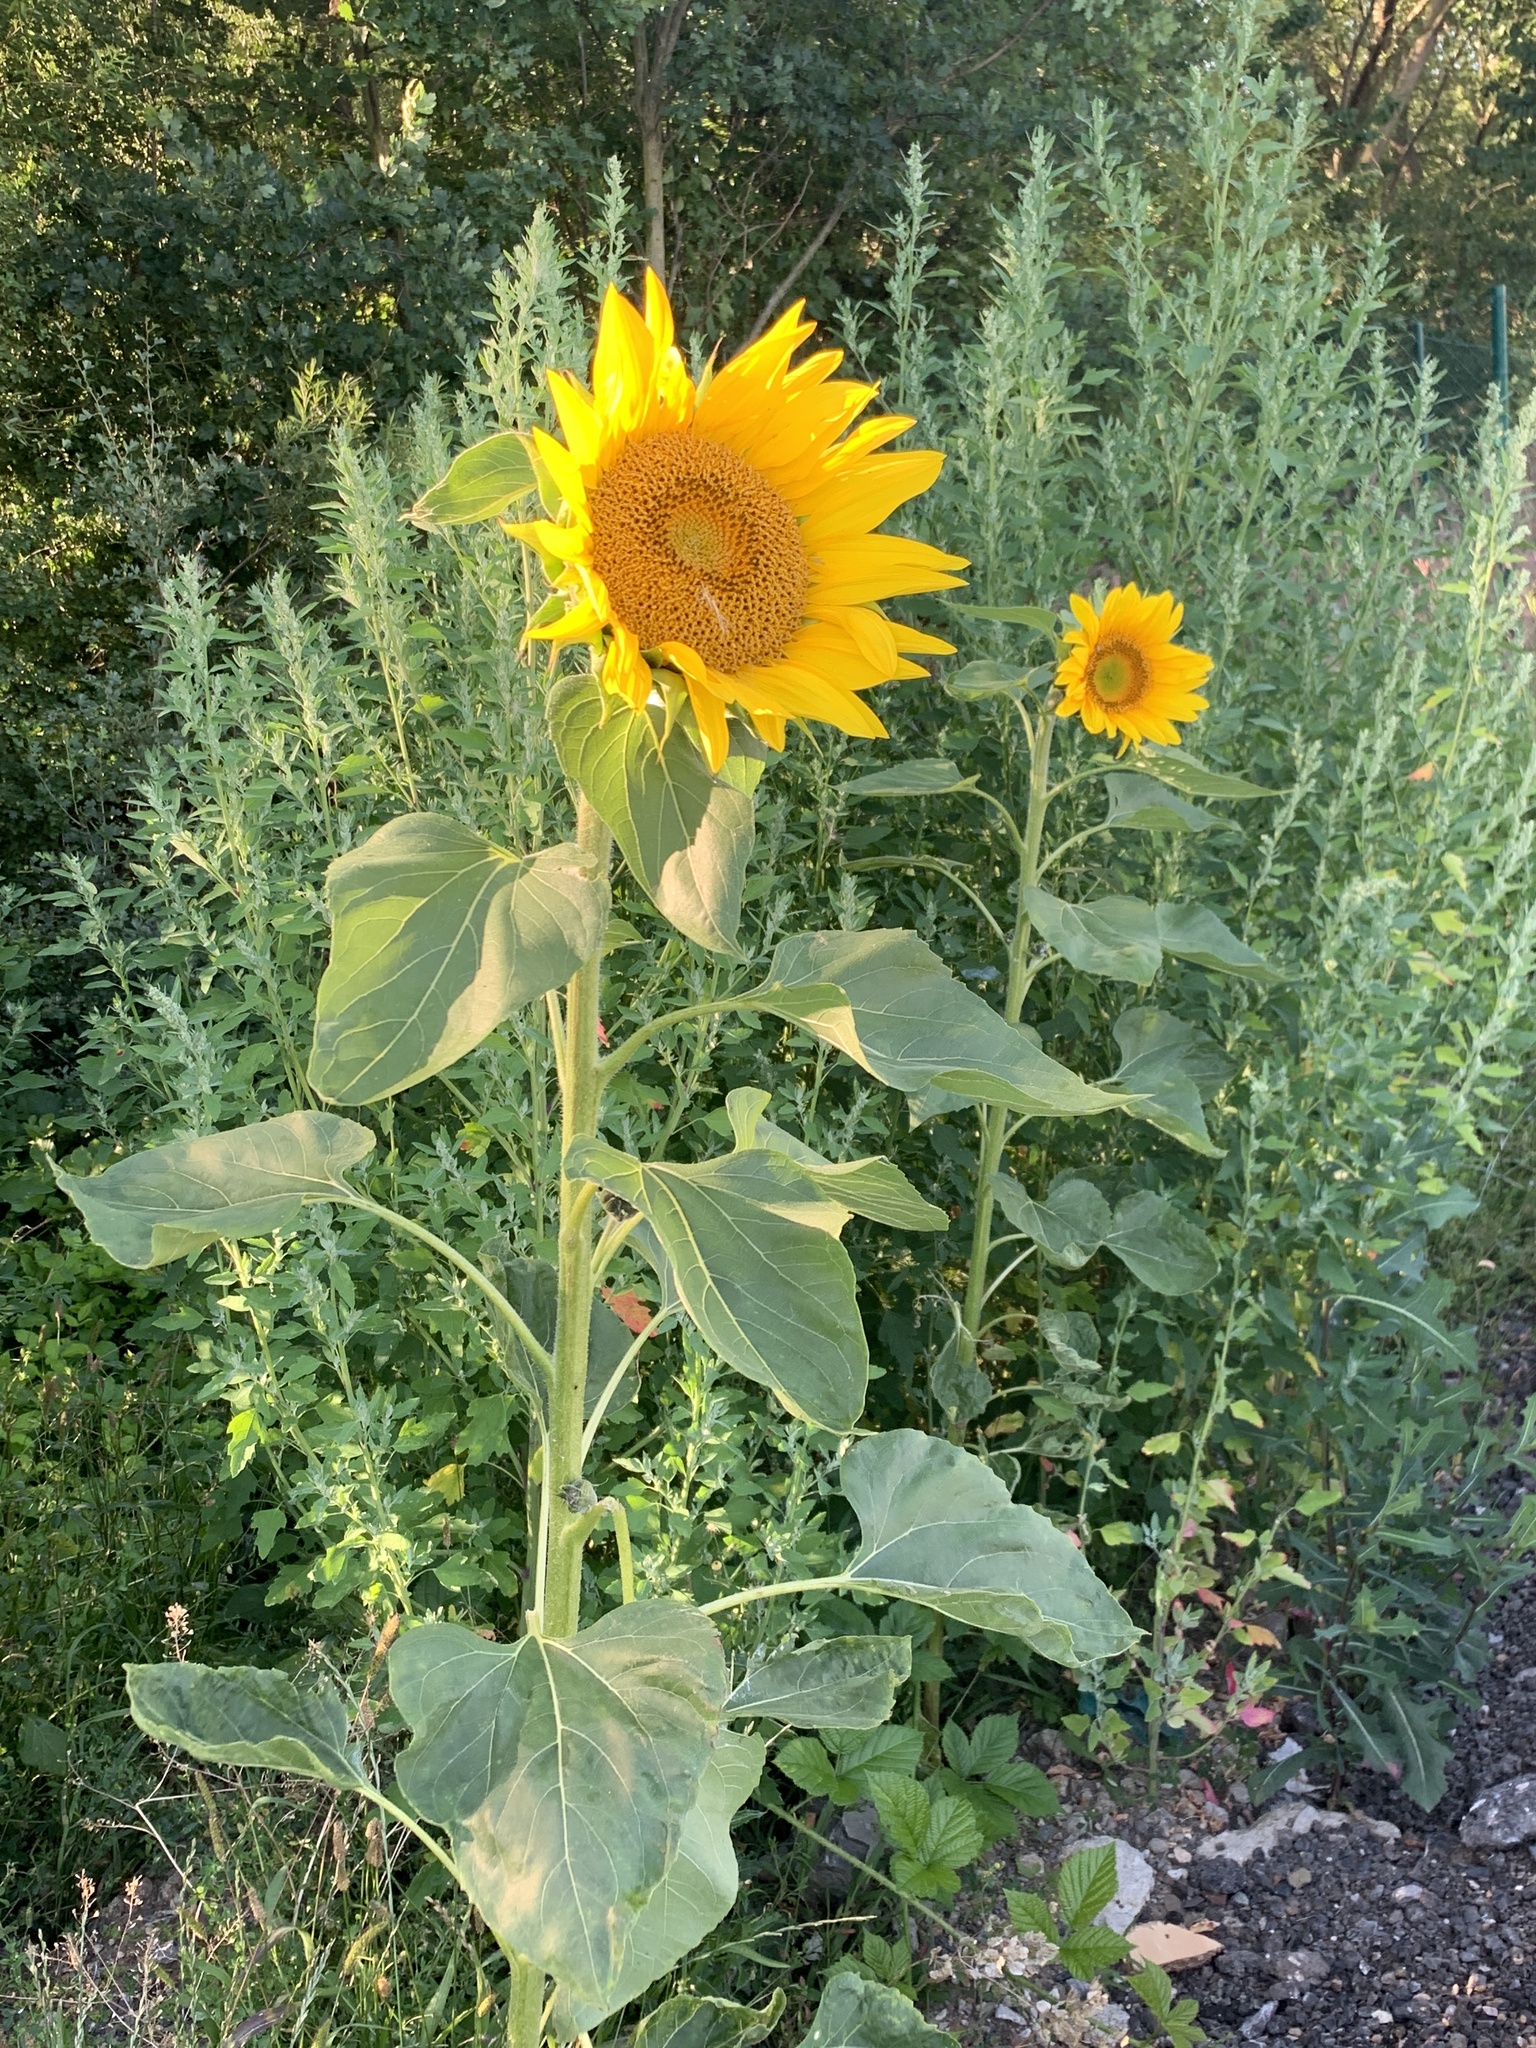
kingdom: Plantae
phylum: Tracheophyta
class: Magnoliopsida
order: Asterales
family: Asteraceae
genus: Helianthus
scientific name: Helianthus annuus
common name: Sunflower
